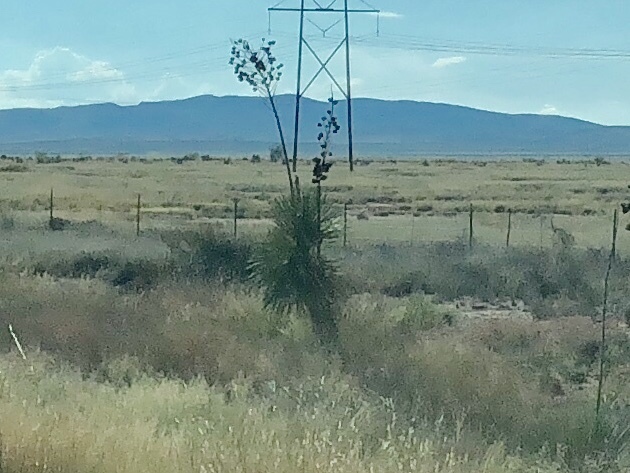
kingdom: Plantae
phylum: Tracheophyta
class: Liliopsida
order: Asparagales
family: Asparagaceae
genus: Yucca
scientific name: Yucca elata
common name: Palmella
